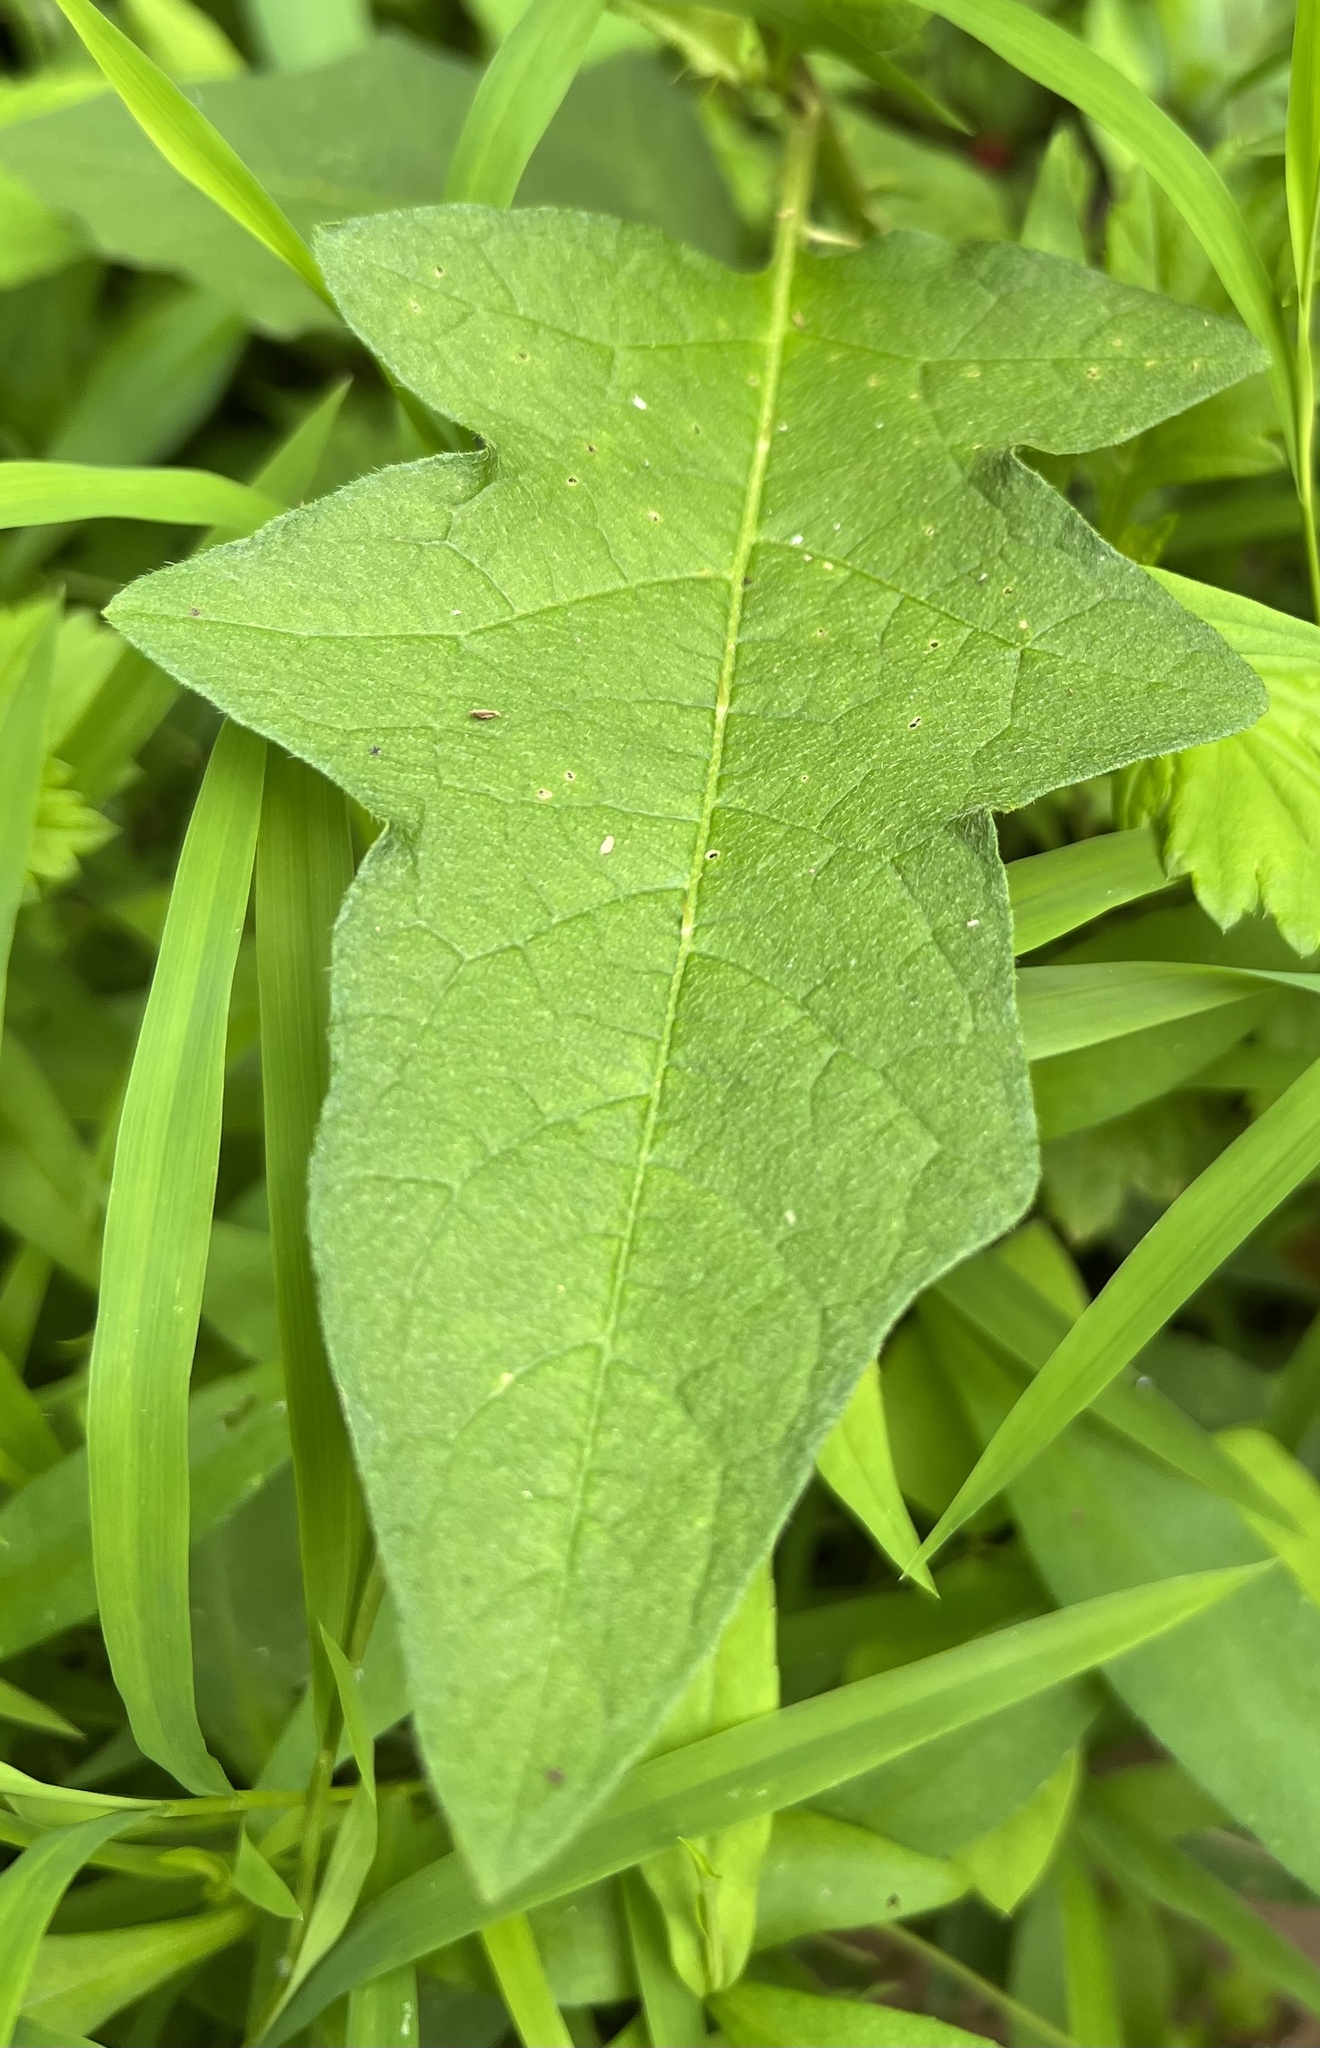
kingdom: Plantae
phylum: Tracheophyta
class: Magnoliopsida
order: Solanales
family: Solanaceae
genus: Solanum
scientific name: Solanum carolinense
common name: Horse-nettle
